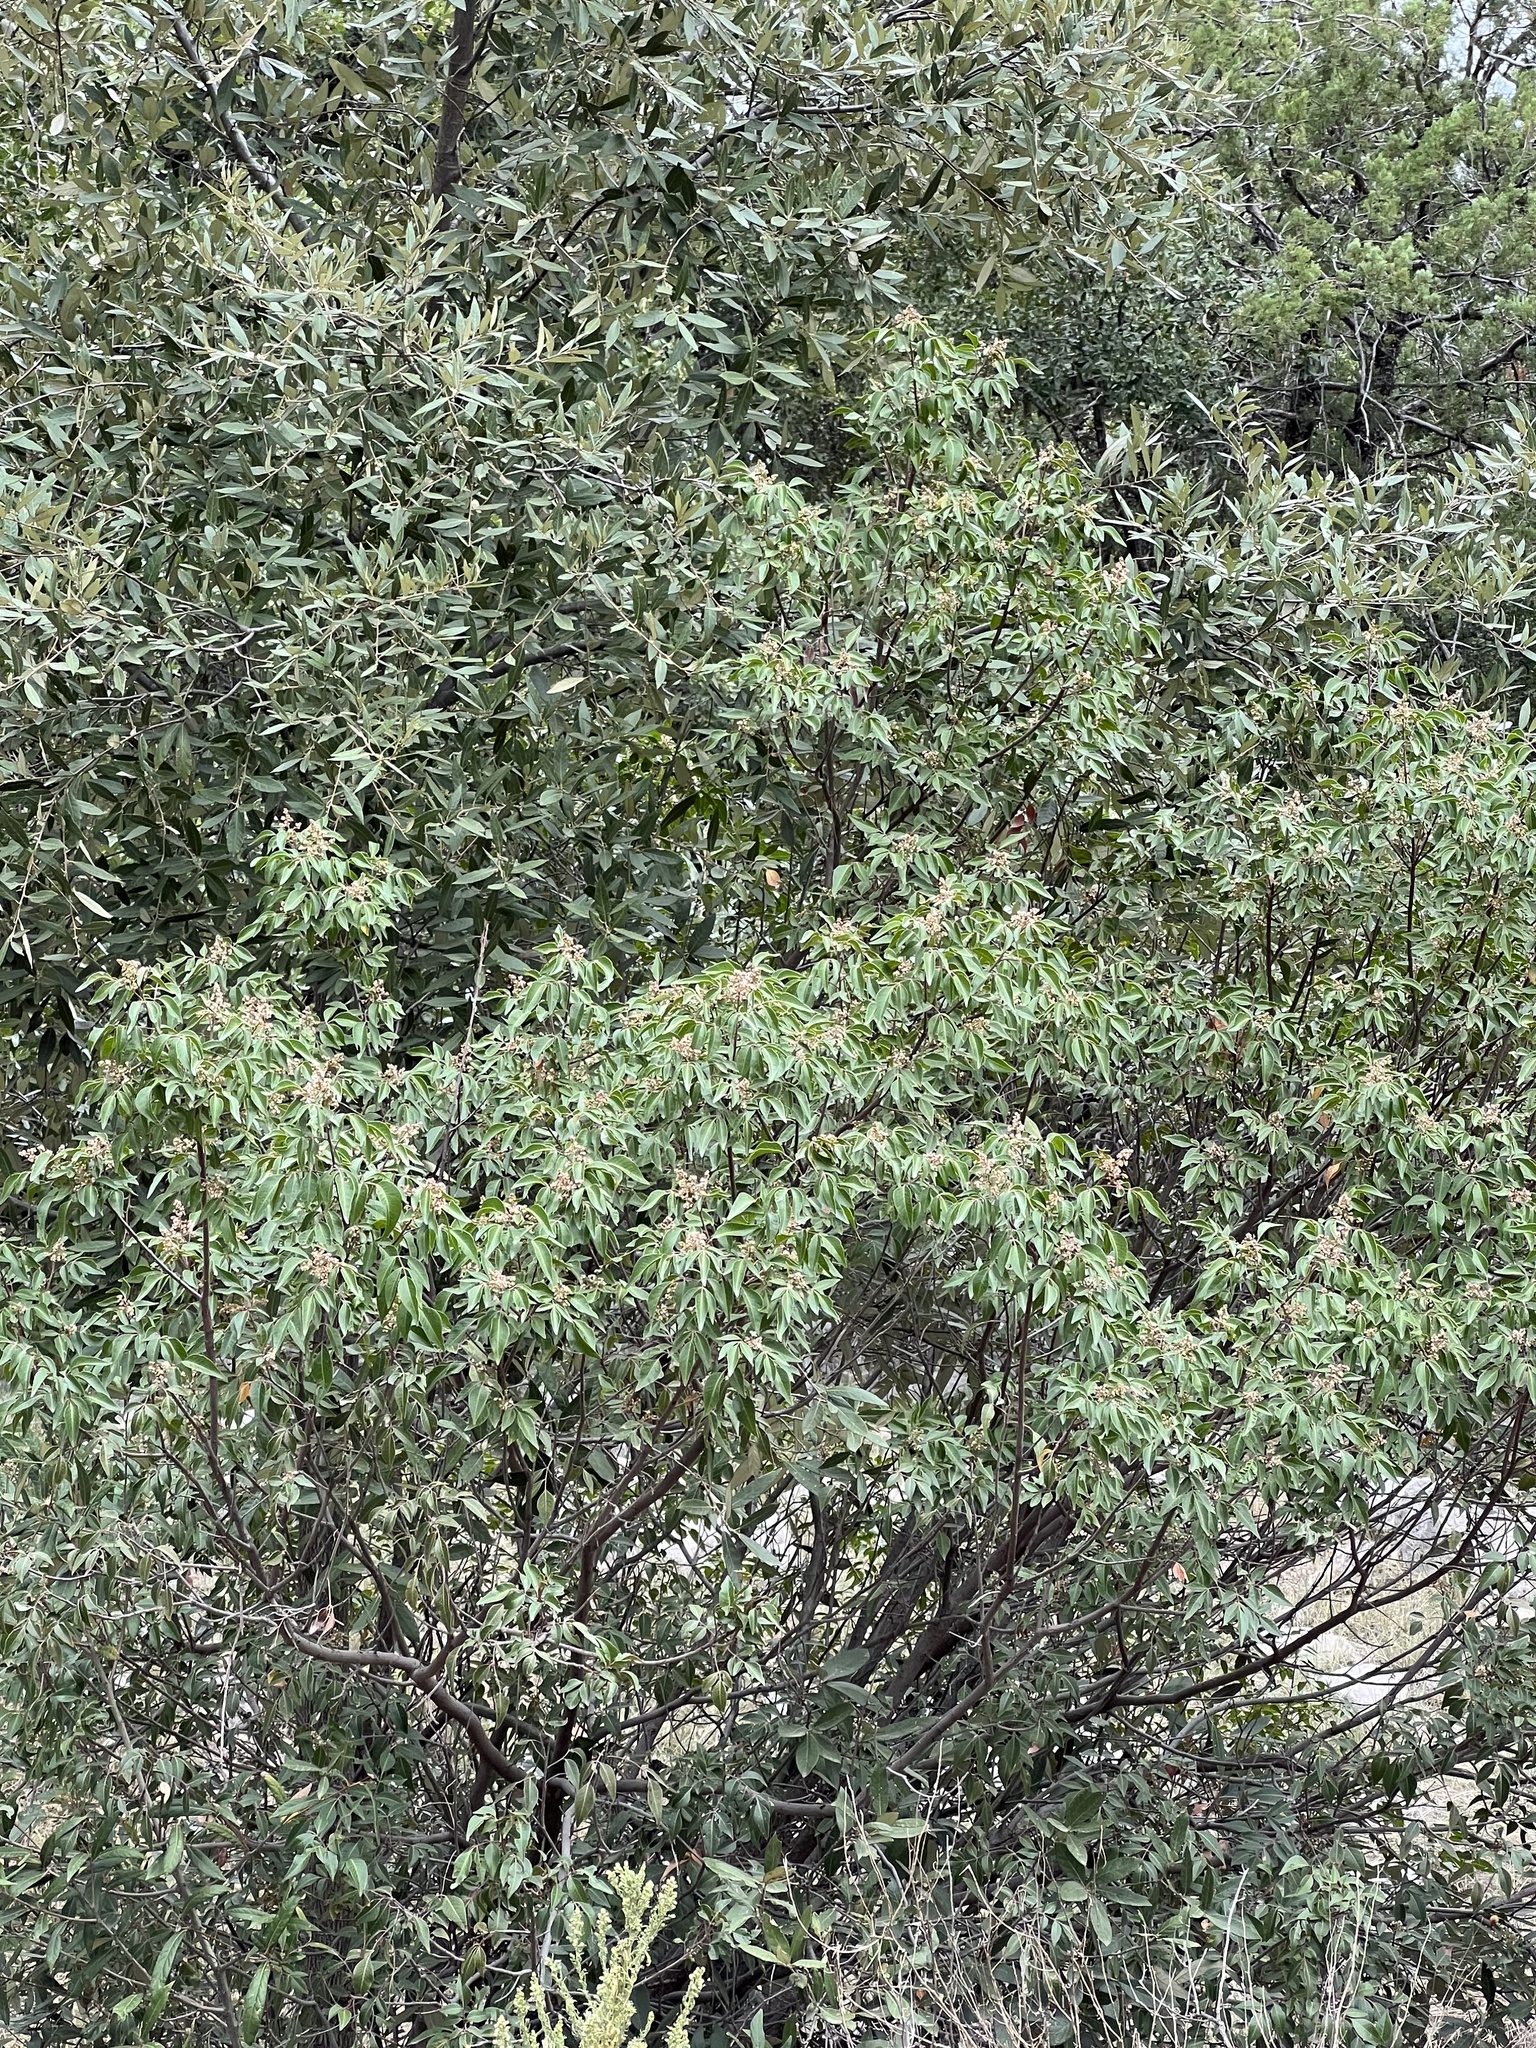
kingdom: Plantae
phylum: Tracheophyta
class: Magnoliopsida
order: Sapindales
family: Anacardiaceae
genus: Rhus
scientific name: Rhus virens
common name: Evergreen sumac
